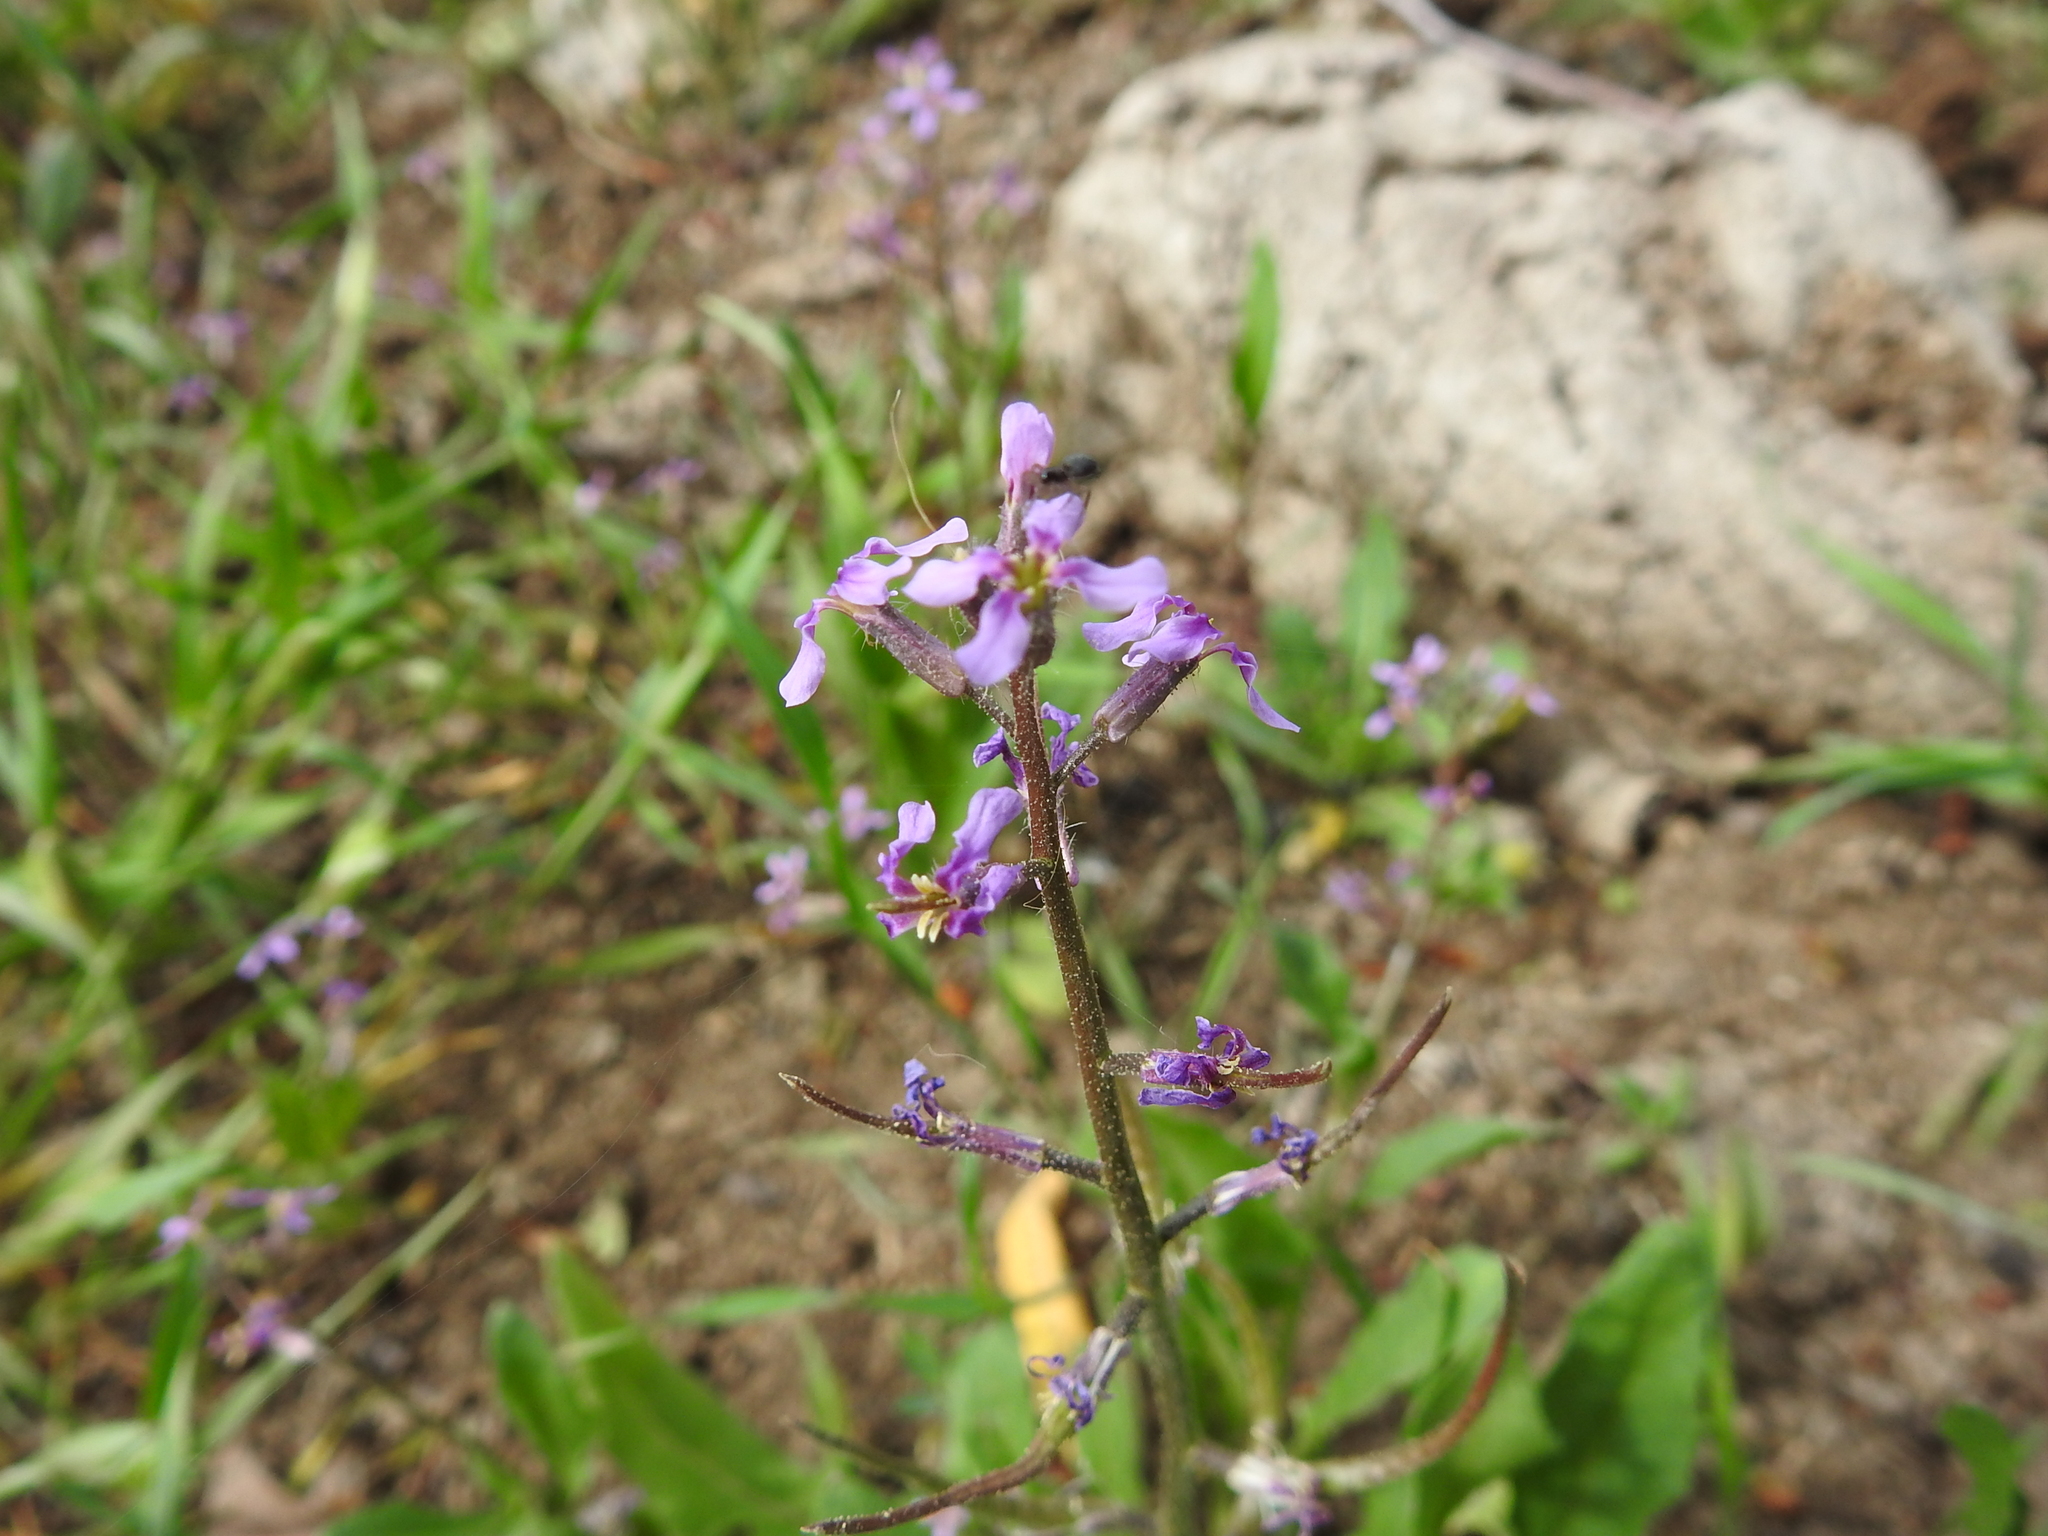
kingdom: Plantae
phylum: Tracheophyta
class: Magnoliopsida
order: Brassicales
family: Brassicaceae
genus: Chorispora
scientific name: Chorispora tenella
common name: Crossflower
